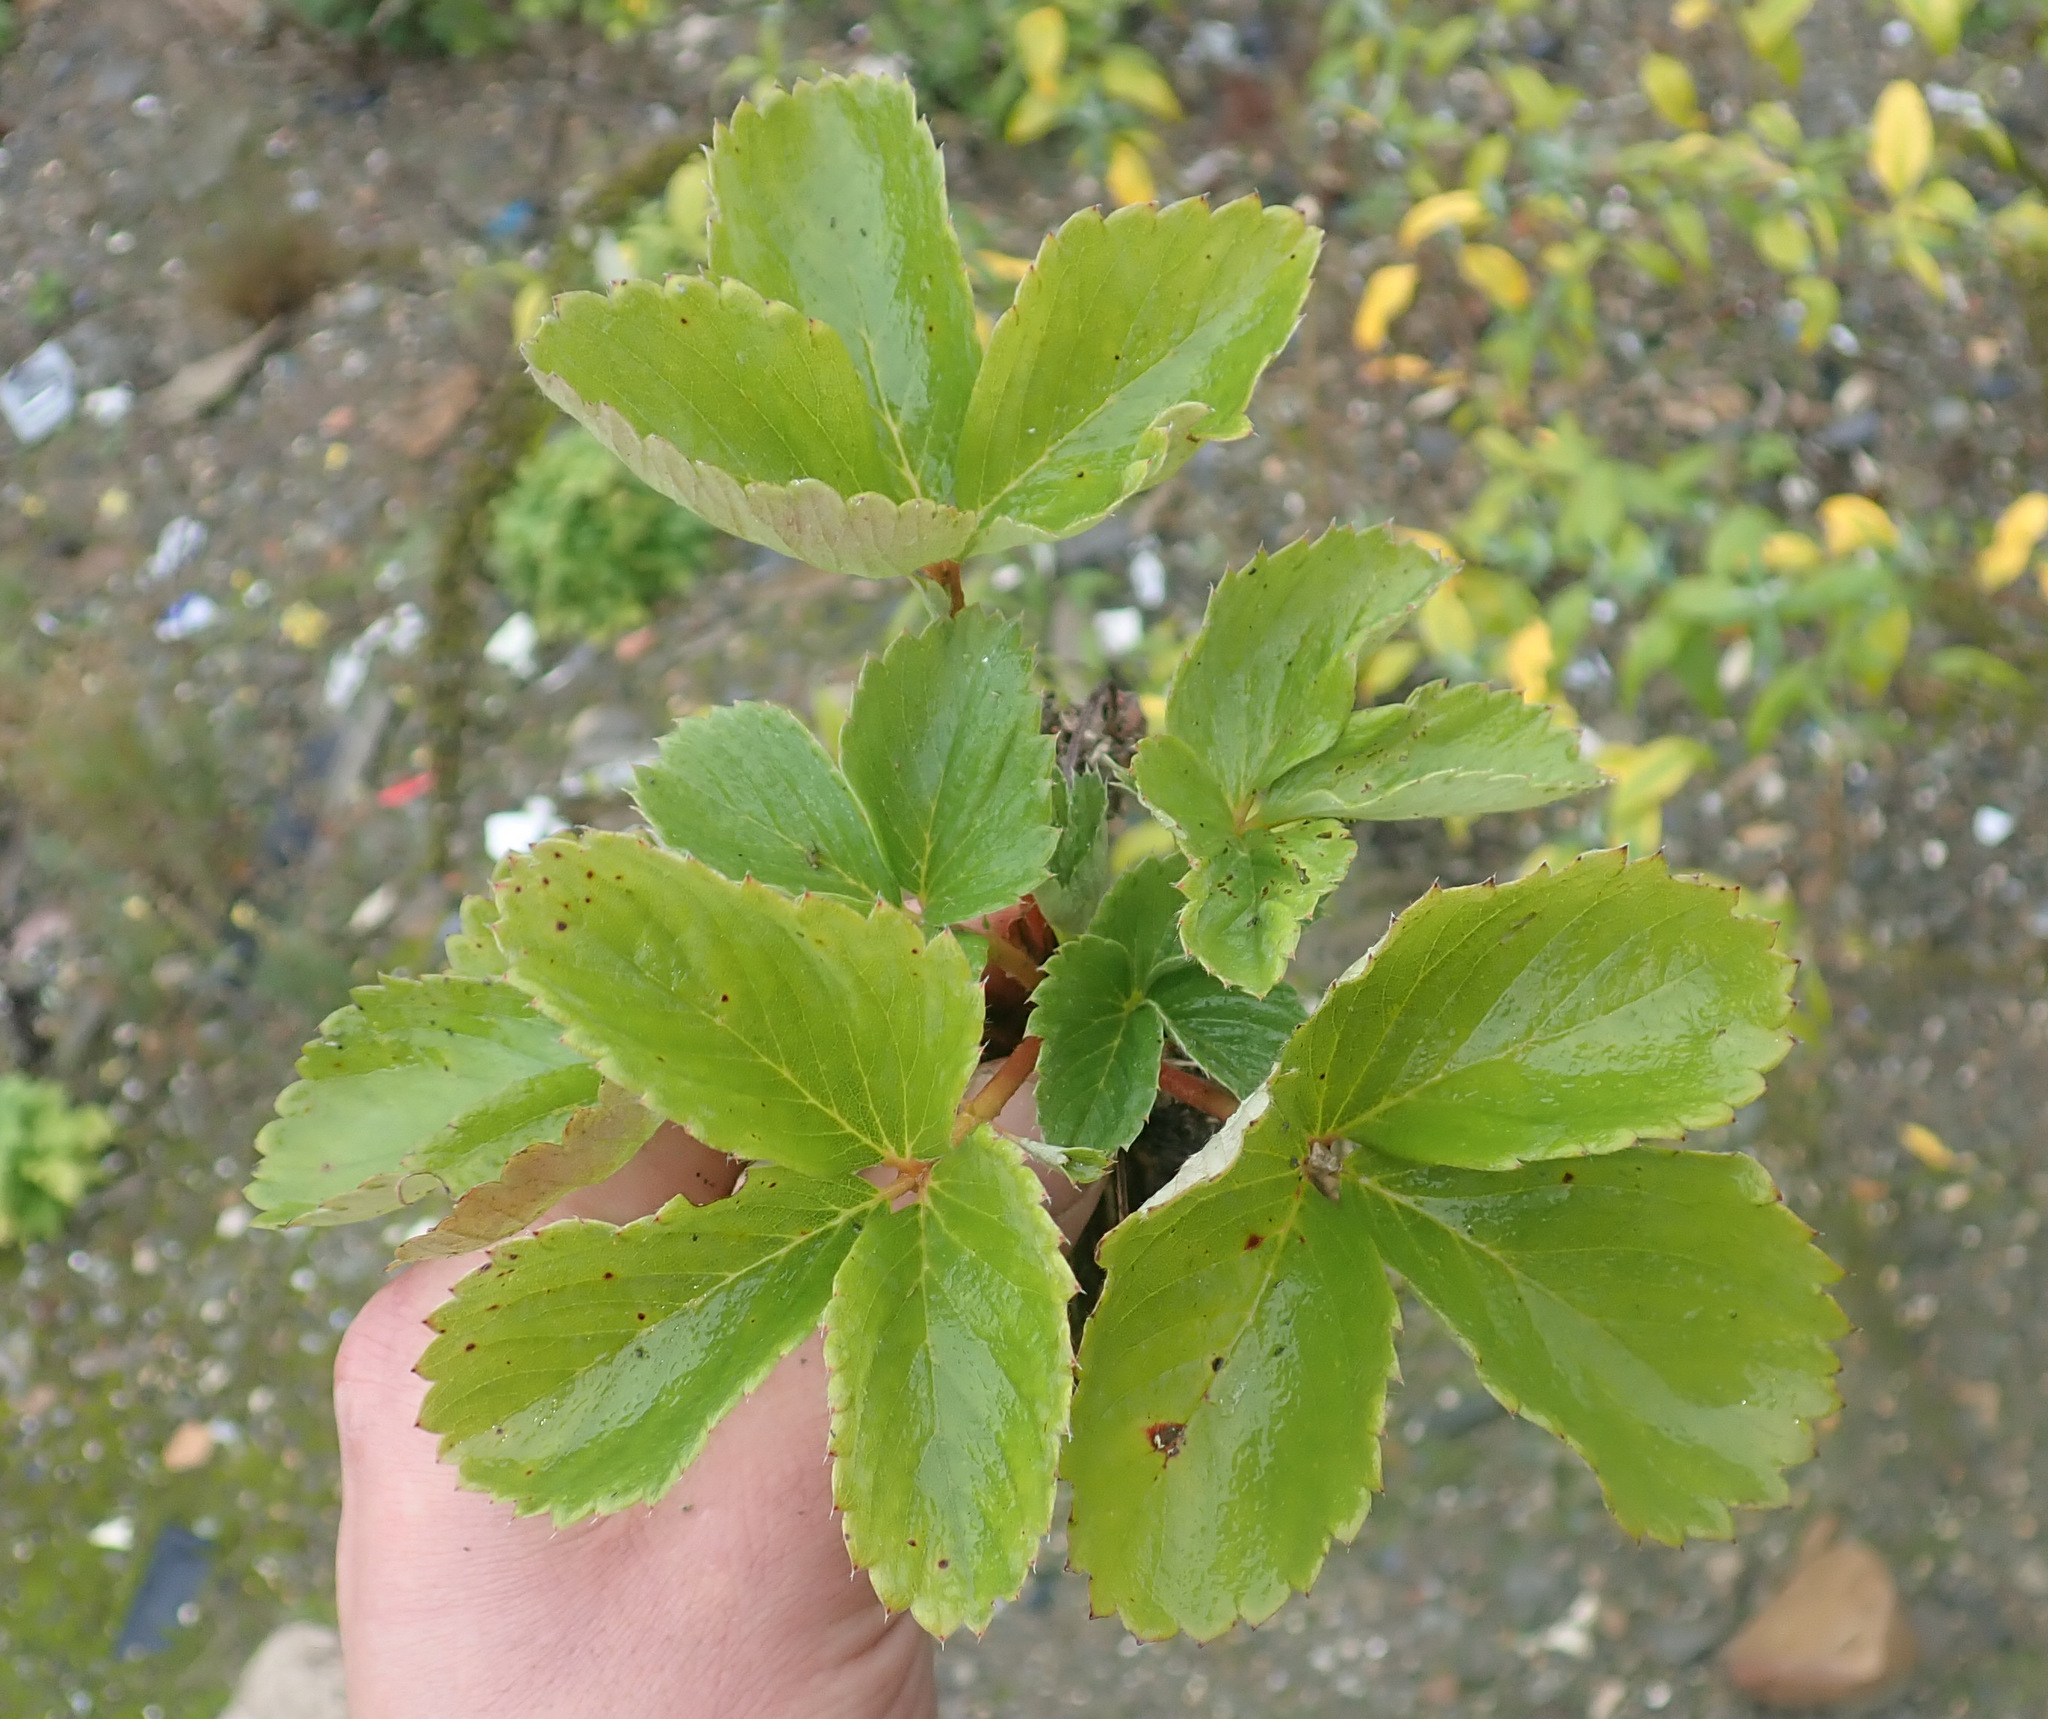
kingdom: Plantae
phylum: Tracheophyta
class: Magnoliopsida
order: Rosales
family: Rosaceae
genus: Fragaria
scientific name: Fragaria ananassa
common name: Garden strawberry
